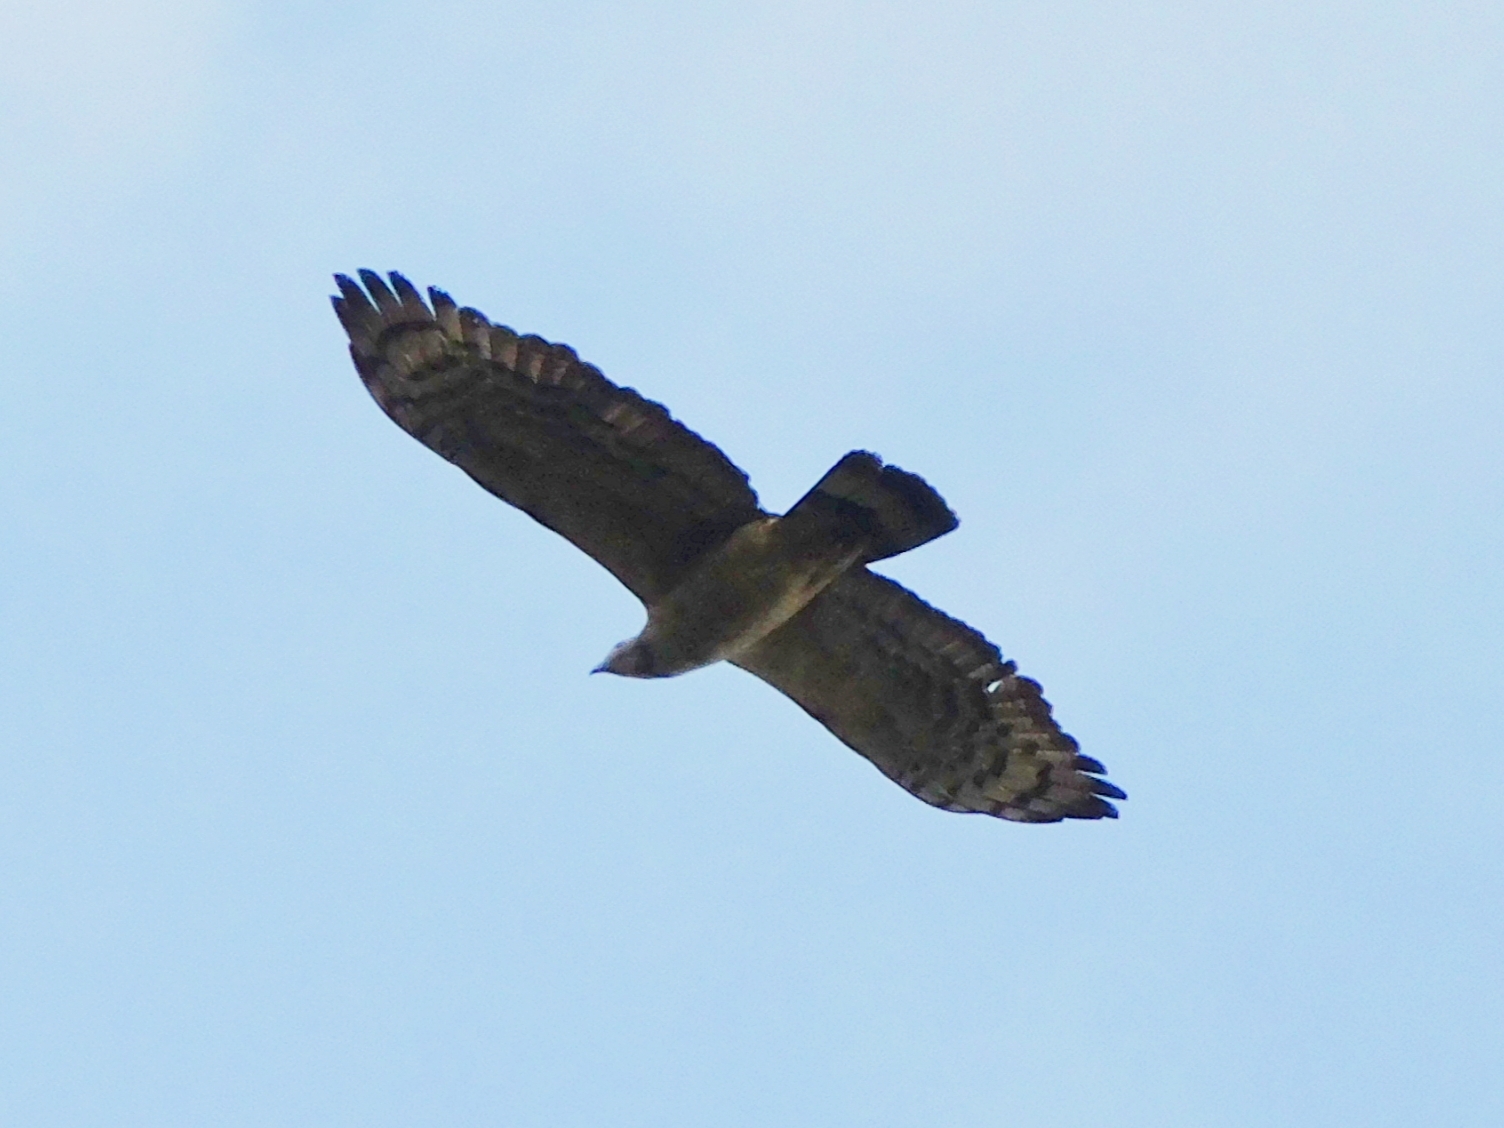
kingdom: Animalia
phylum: Chordata
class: Aves
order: Accipitriformes
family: Accipitridae
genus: Pernis
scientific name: Pernis ptilorhynchus
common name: Crested honey buzzard
